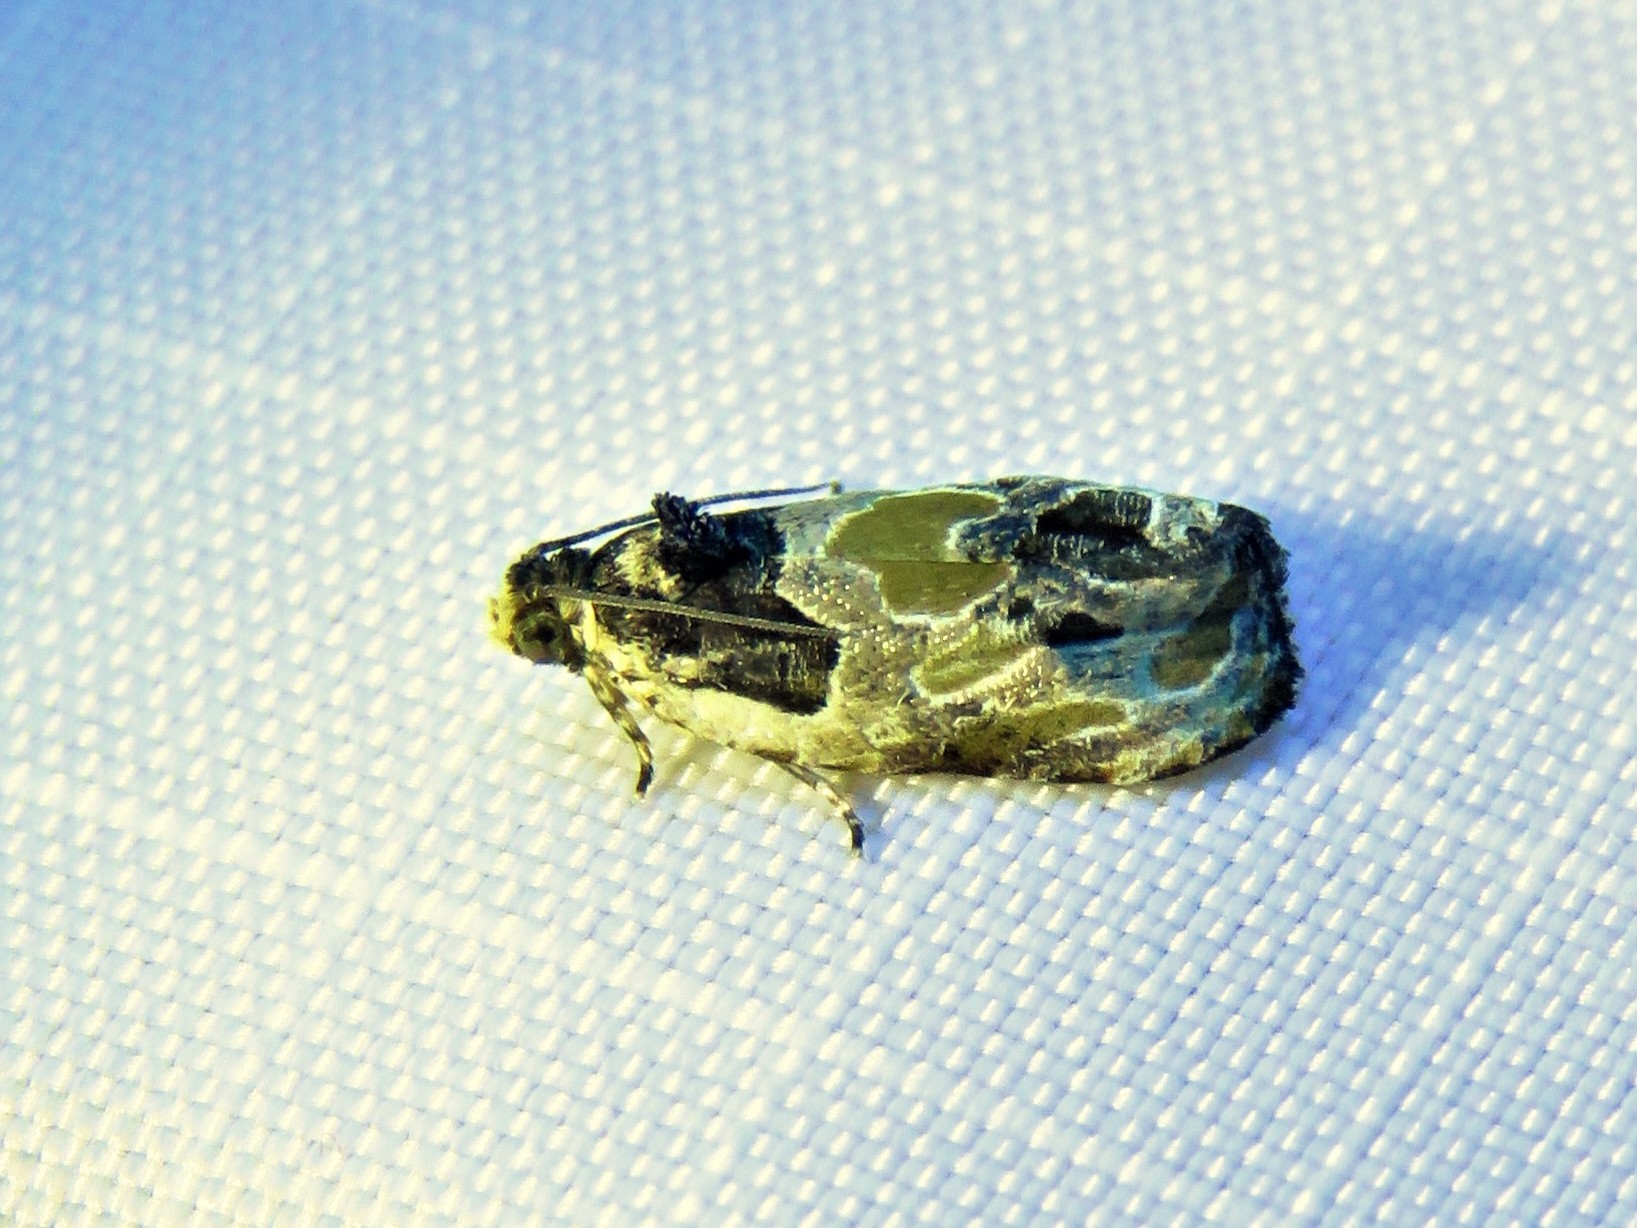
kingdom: Animalia
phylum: Arthropoda
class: Insecta
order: Lepidoptera
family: Tortricidae
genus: Olethreutes
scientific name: Olethreutes griseoalbana
